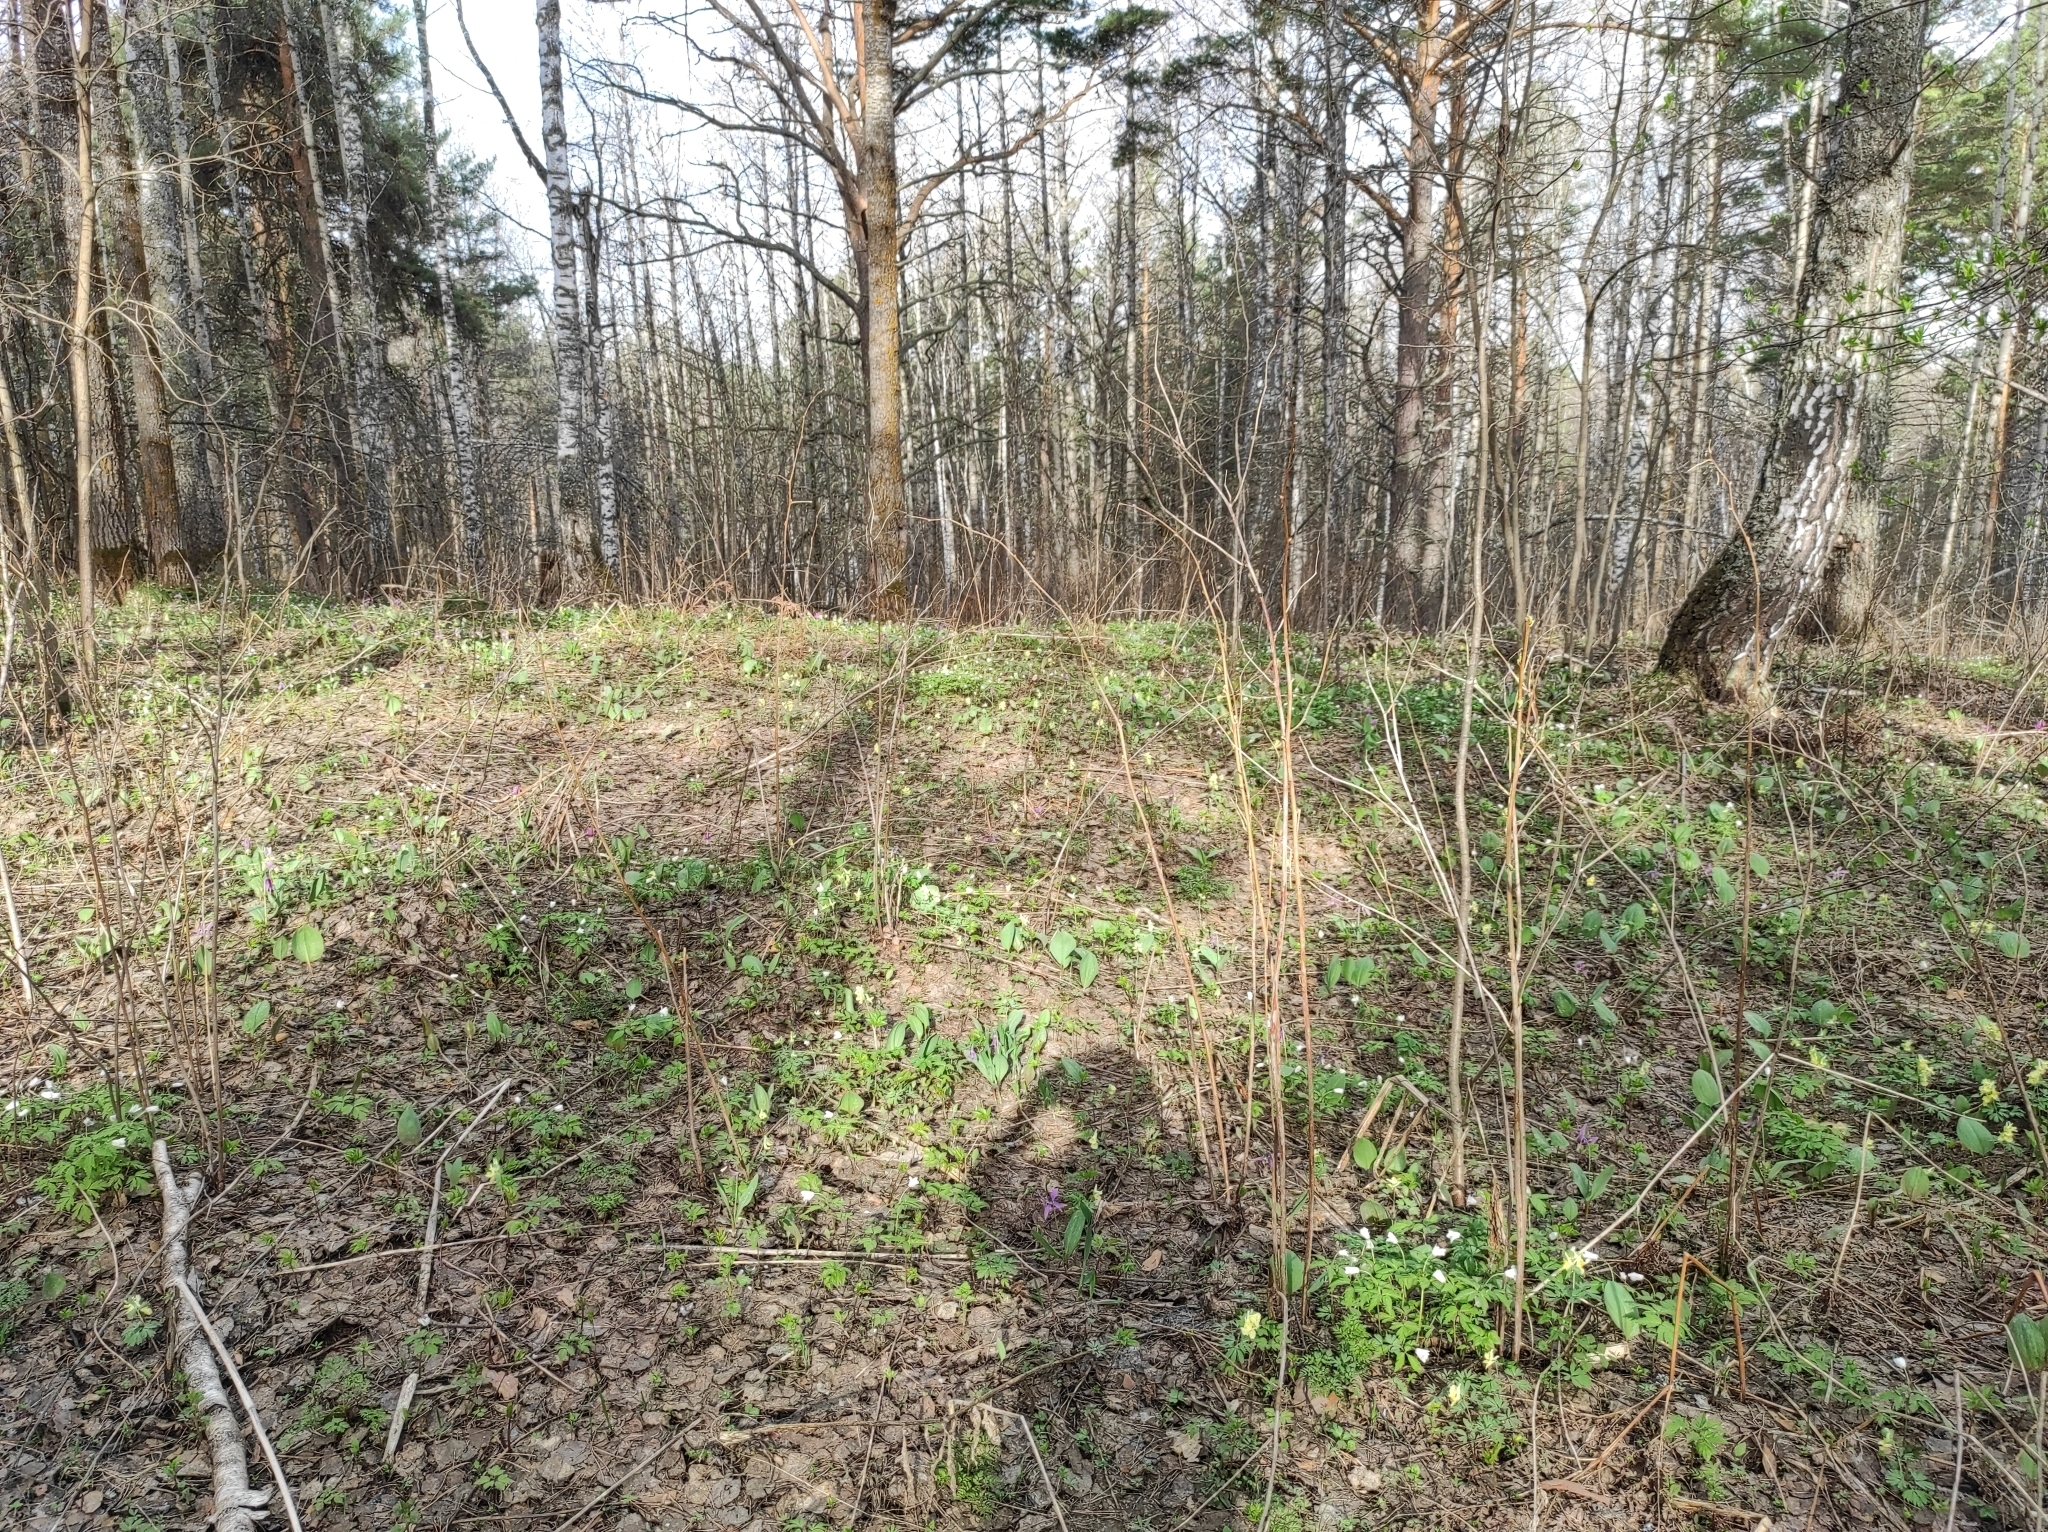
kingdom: Plantae
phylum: Tracheophyta
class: Pinopsida
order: Pinales
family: Pinaceae
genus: Pinus
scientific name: Pinus sylvestris
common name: Scots pine
